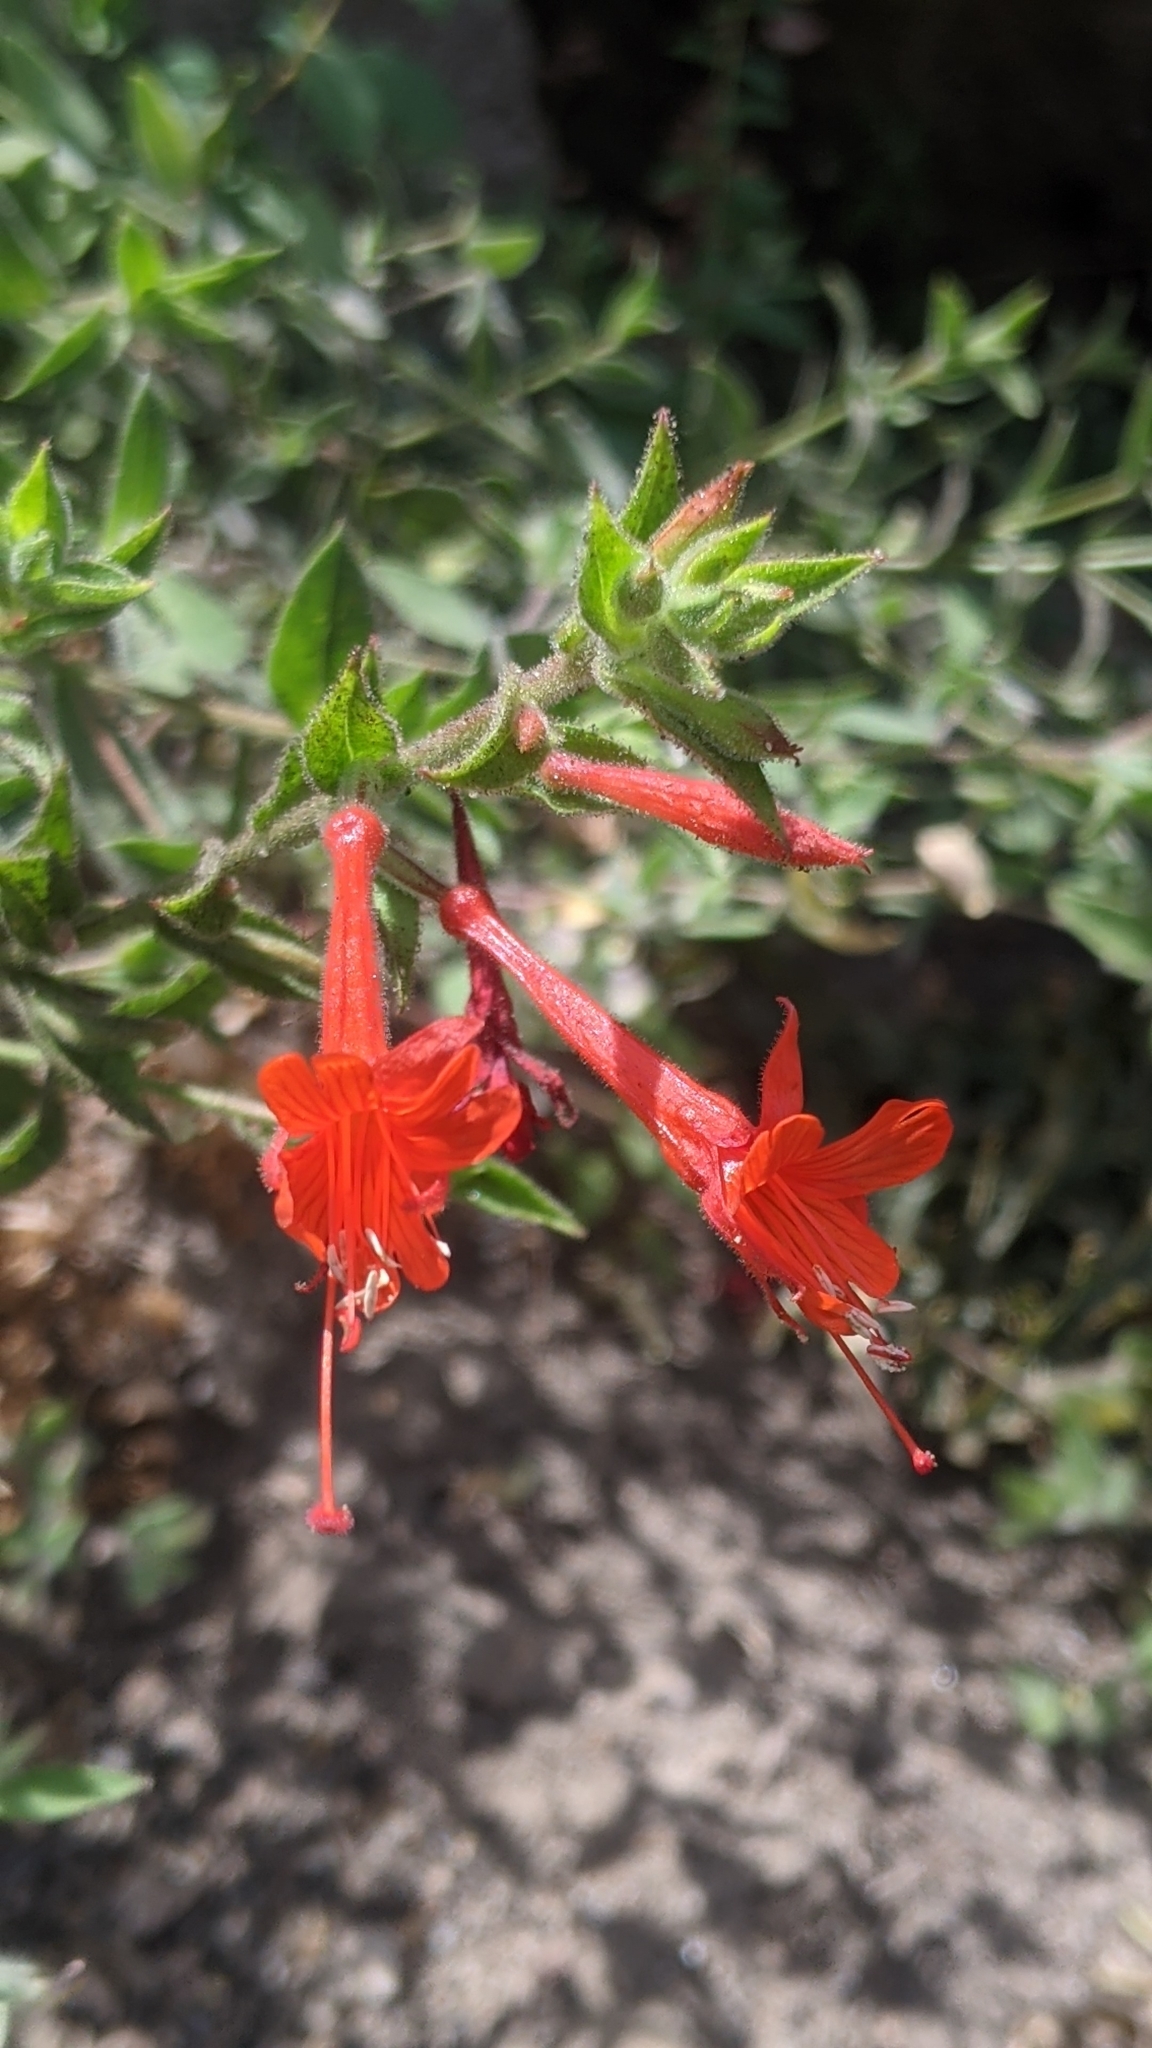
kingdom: Plantae
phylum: Tracheophyta
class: Magnoliopsida
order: Myrtales
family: Onagraceae
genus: Epilobium
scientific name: Epilobium canum
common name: California-fuchsia
